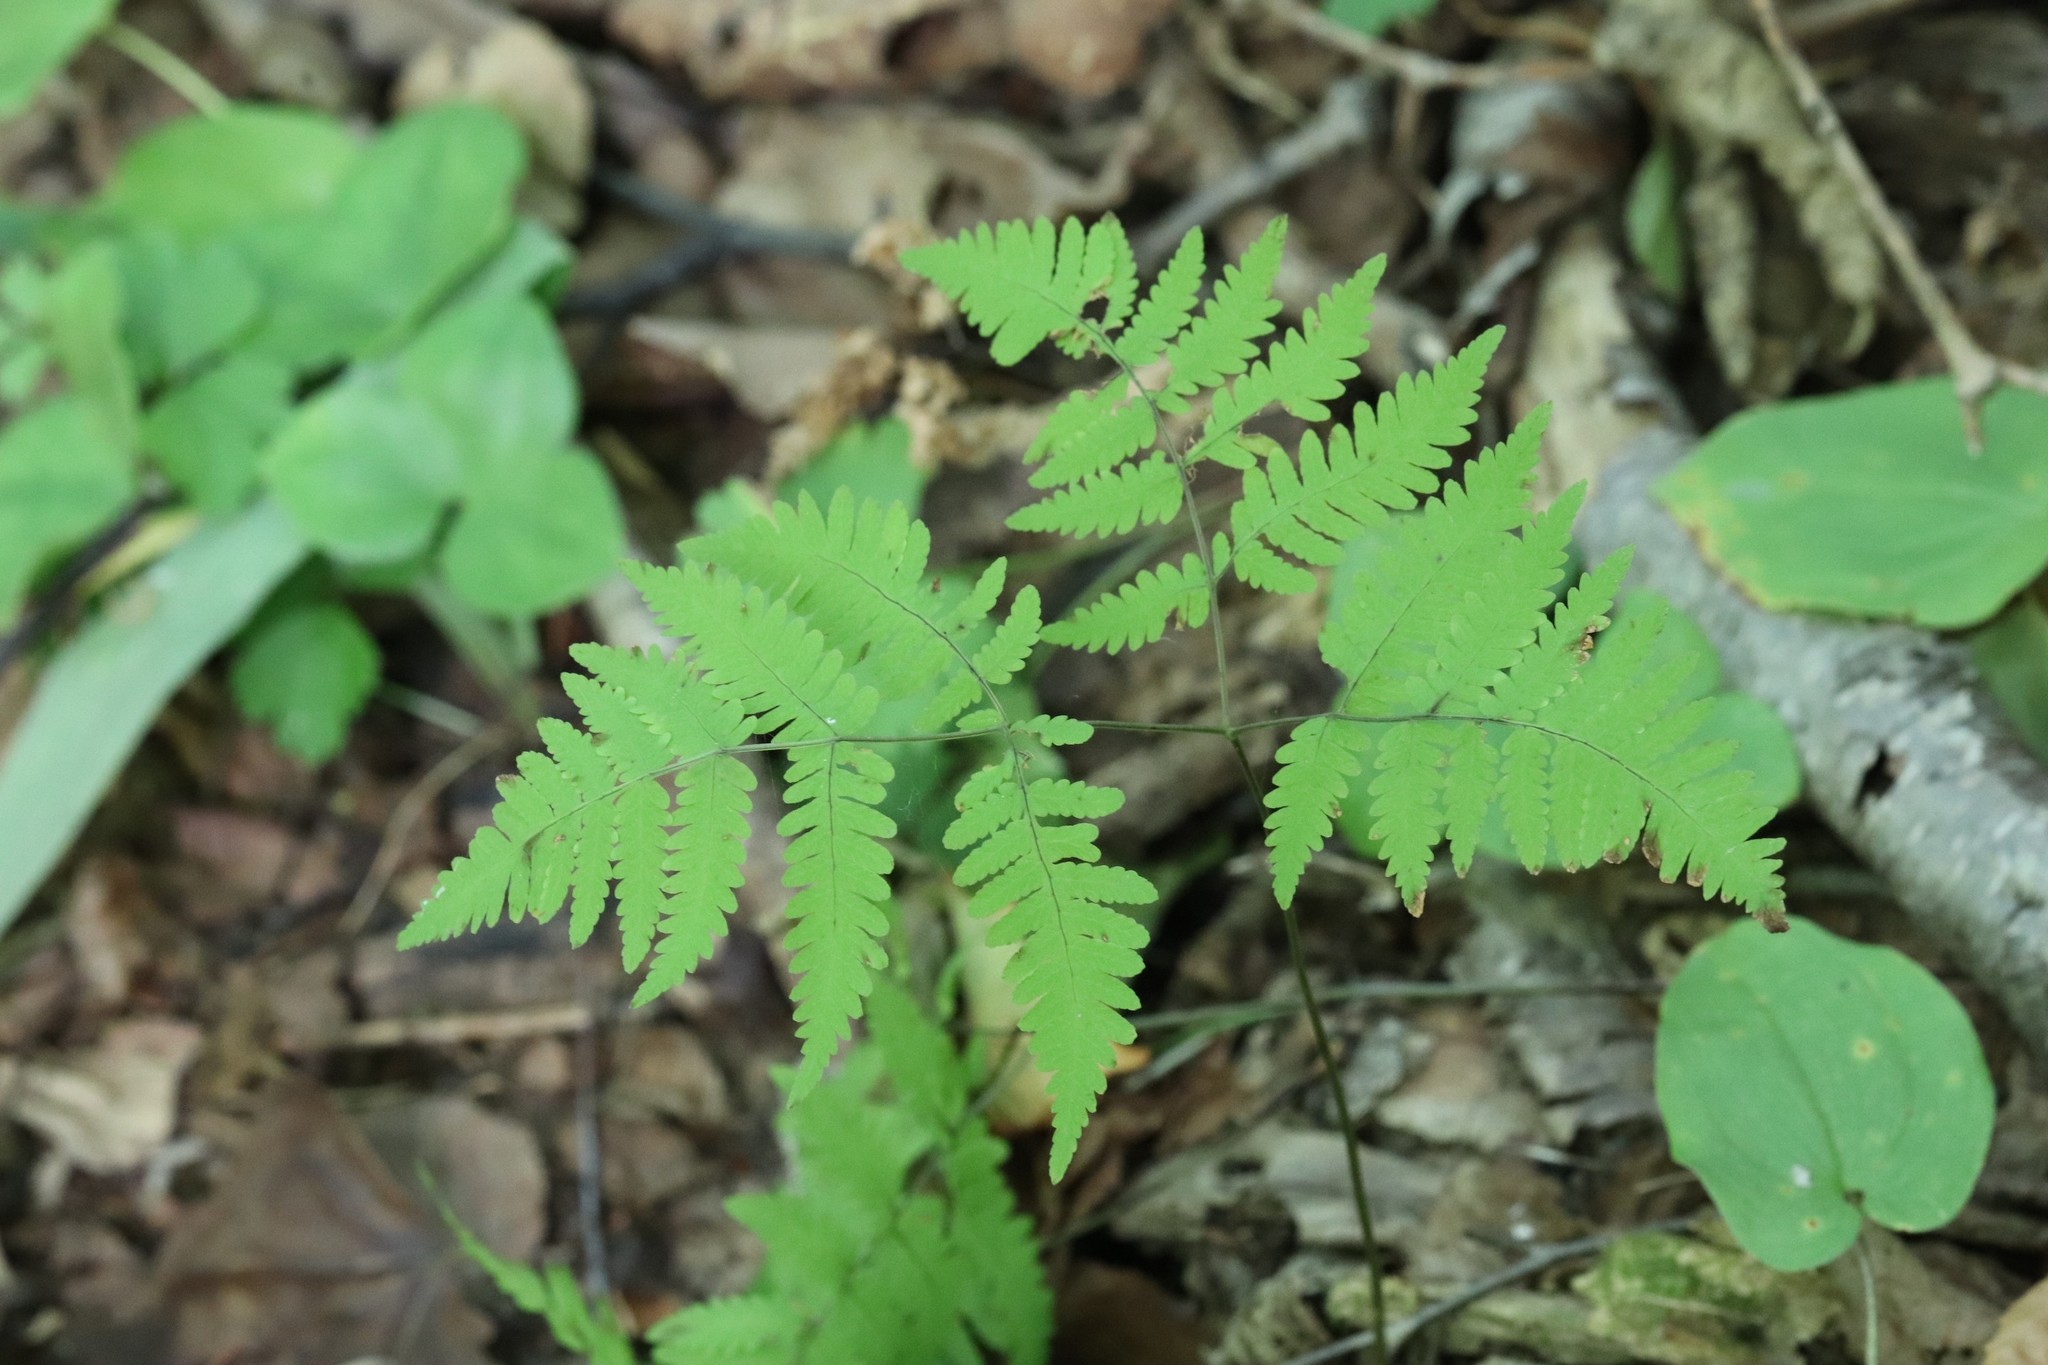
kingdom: Plantae
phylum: Tracheophyta
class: Polypodiopsida
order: Polypodiales
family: Cystopteridaceae
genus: Gymnocarpium
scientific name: Gymnocarpium dryopteris
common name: Oak fern
